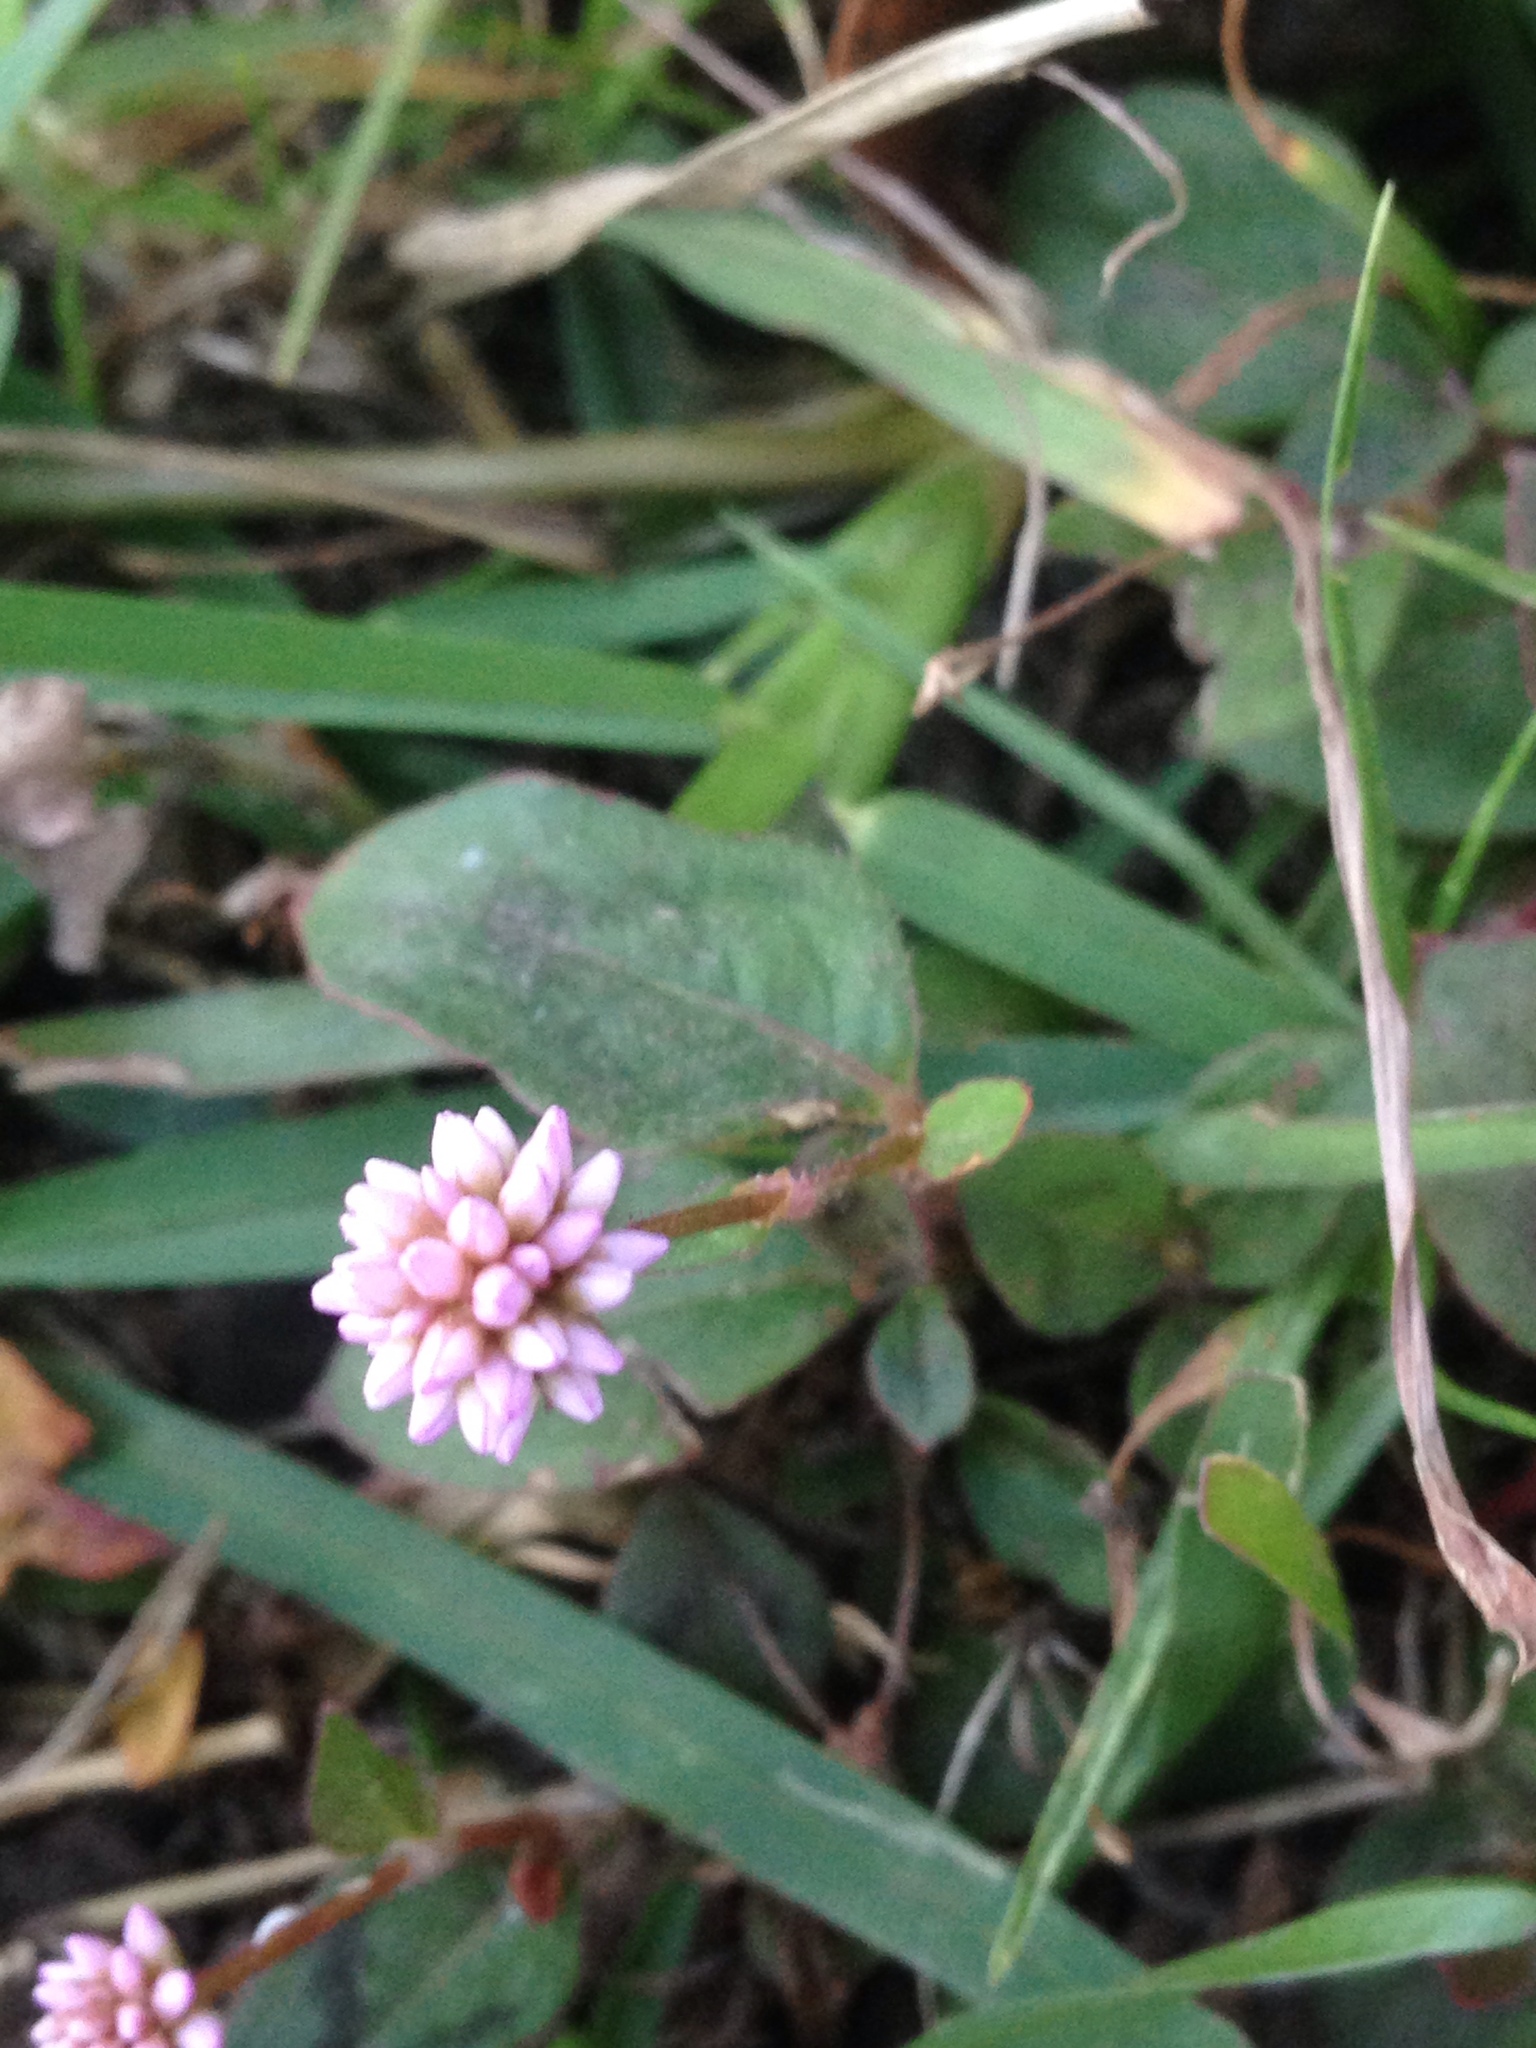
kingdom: Plantae
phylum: Tracheophyta
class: Magnoliopsida
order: Caryophyllales
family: Polygonaceae
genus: Persicaria
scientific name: Persicaria capitata
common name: Pinkhead smartweed
